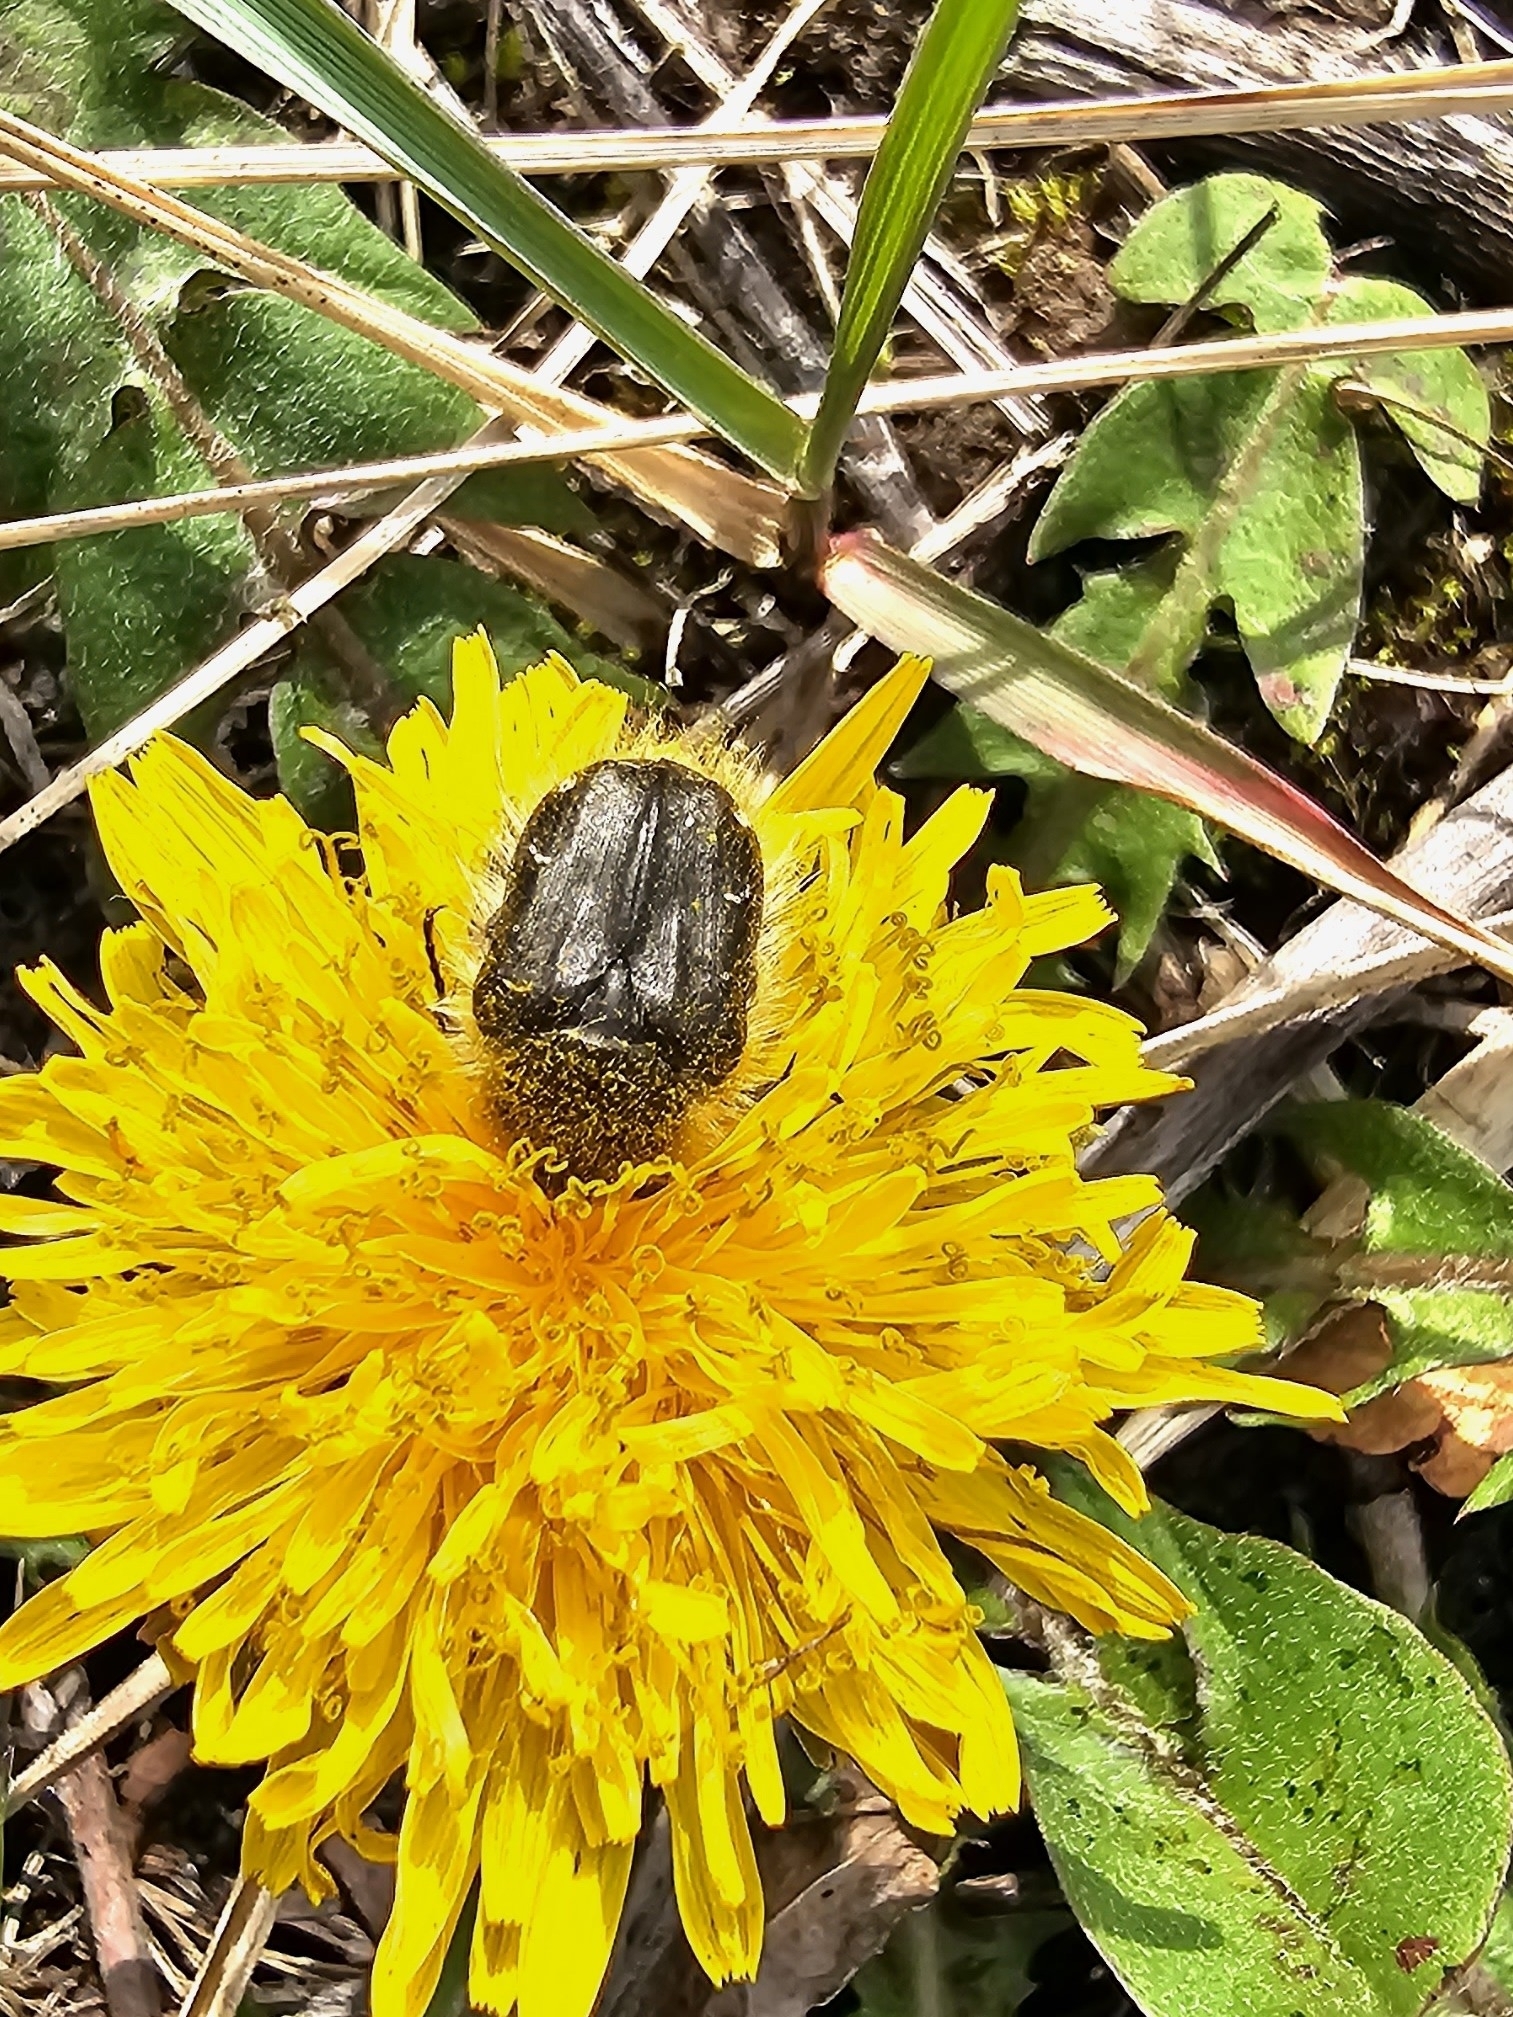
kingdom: Animalia
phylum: Arthropoda
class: Insecta
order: Coleoptera
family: Scarabaeidae
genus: Tropinota
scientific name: Tropinota hirta
